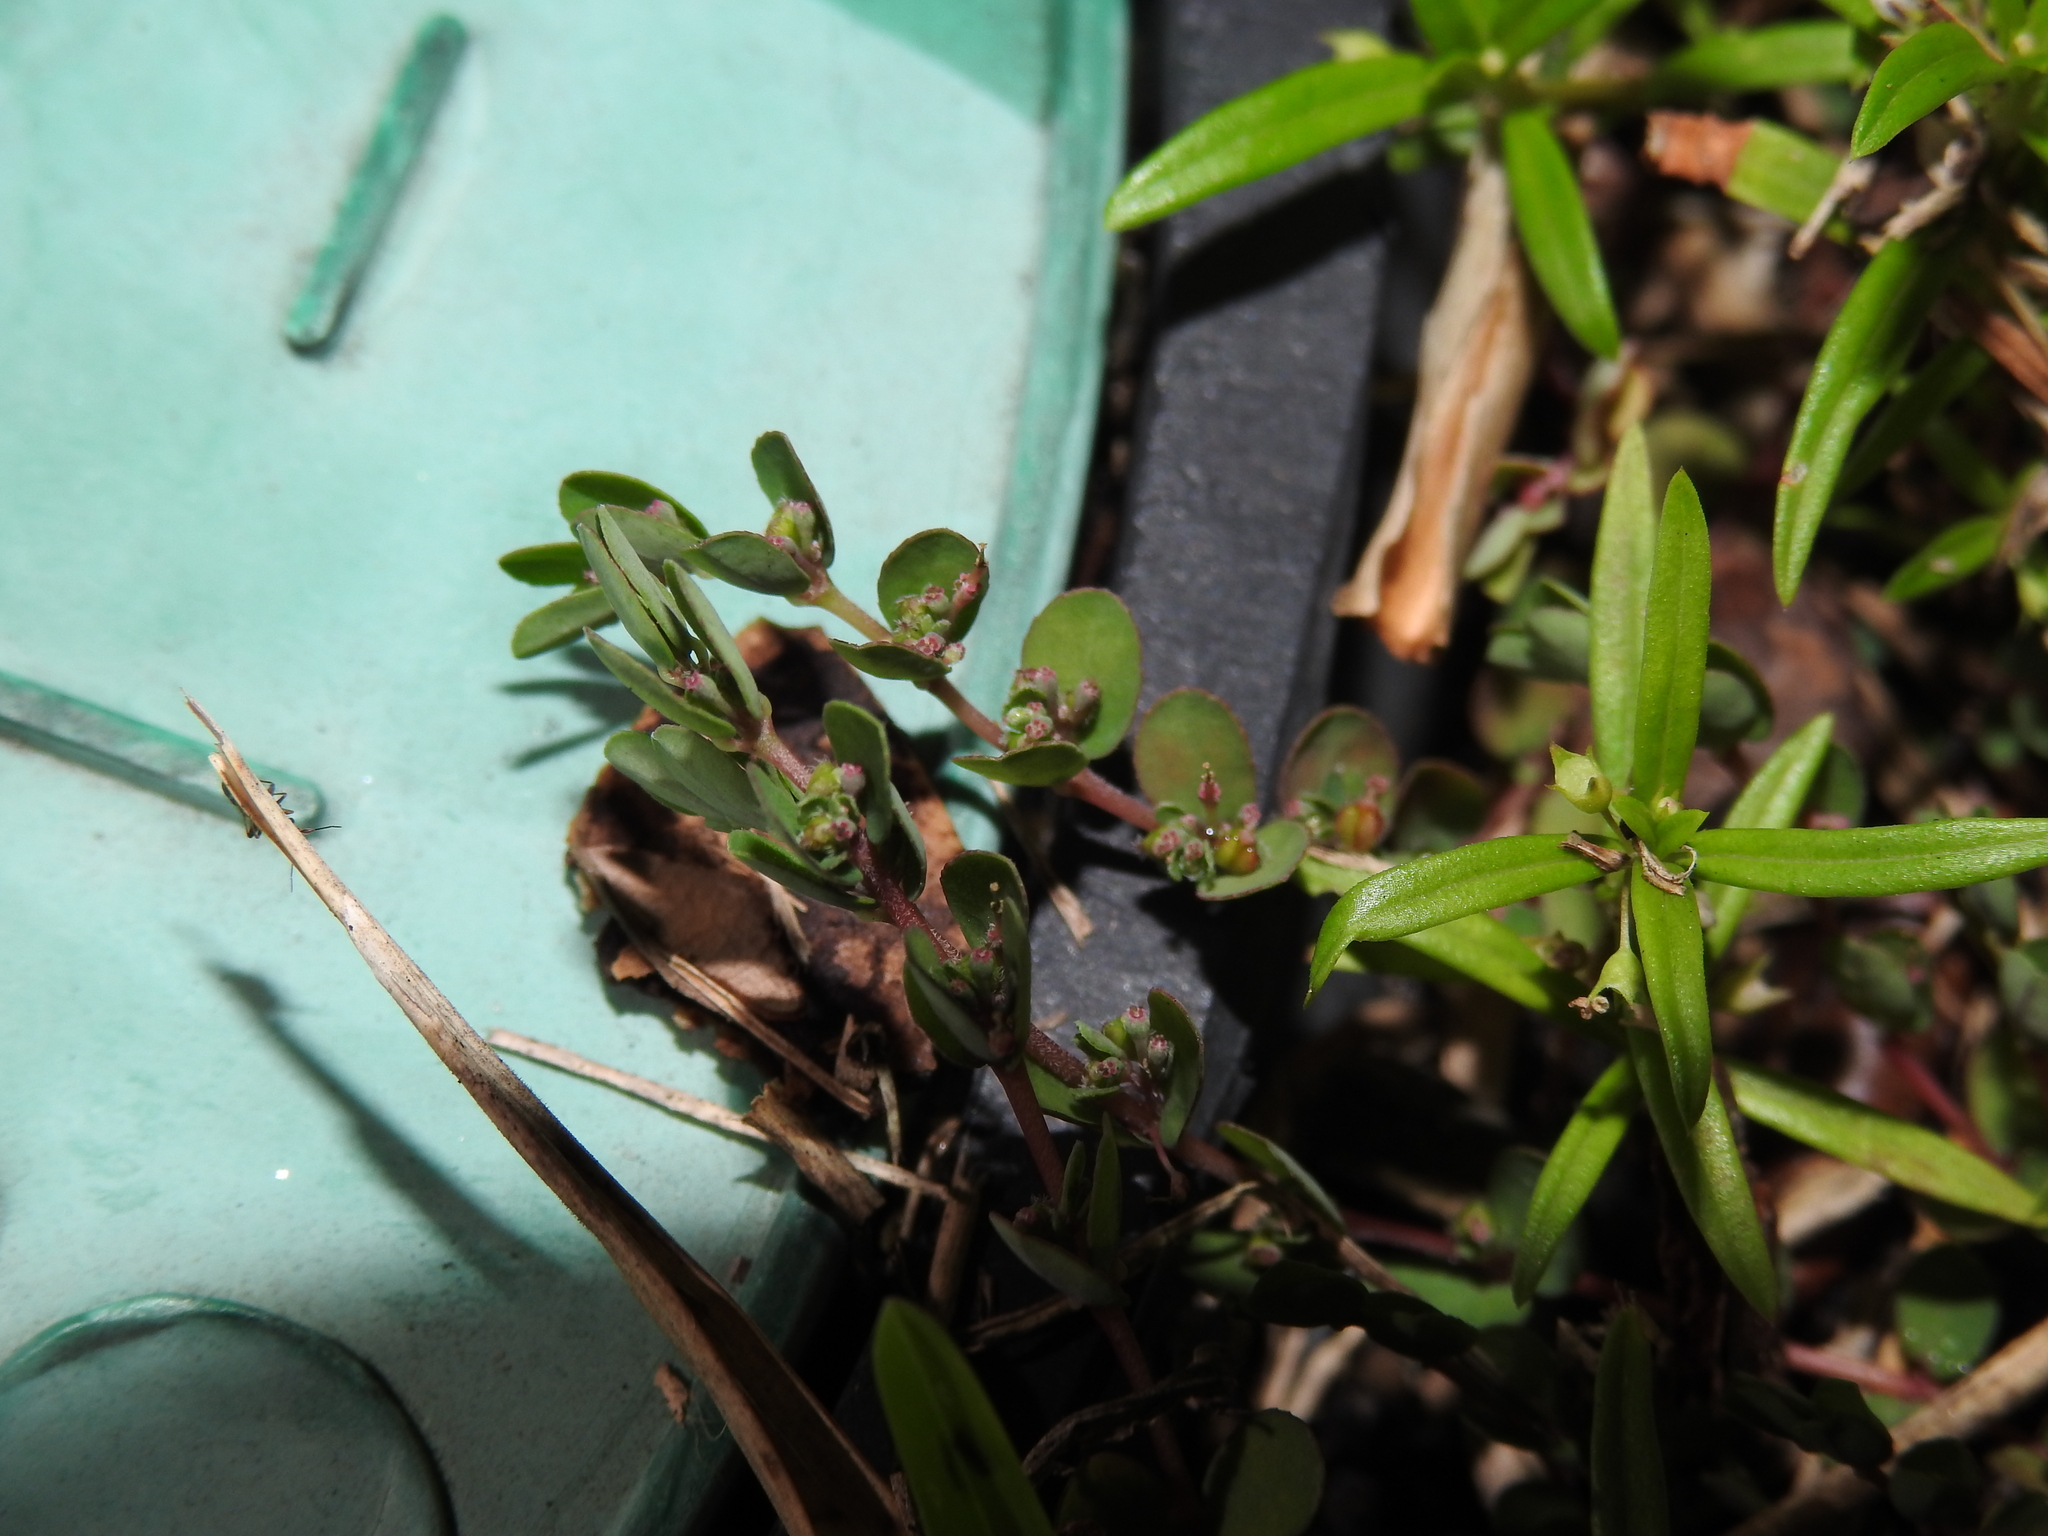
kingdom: Plantae
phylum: Tracheophyta
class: Magnoliopsida
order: Malpighiales
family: Euphorbiaceae
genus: Euphorbia
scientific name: Euphorbia prostrata
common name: Prostrate sandmat
